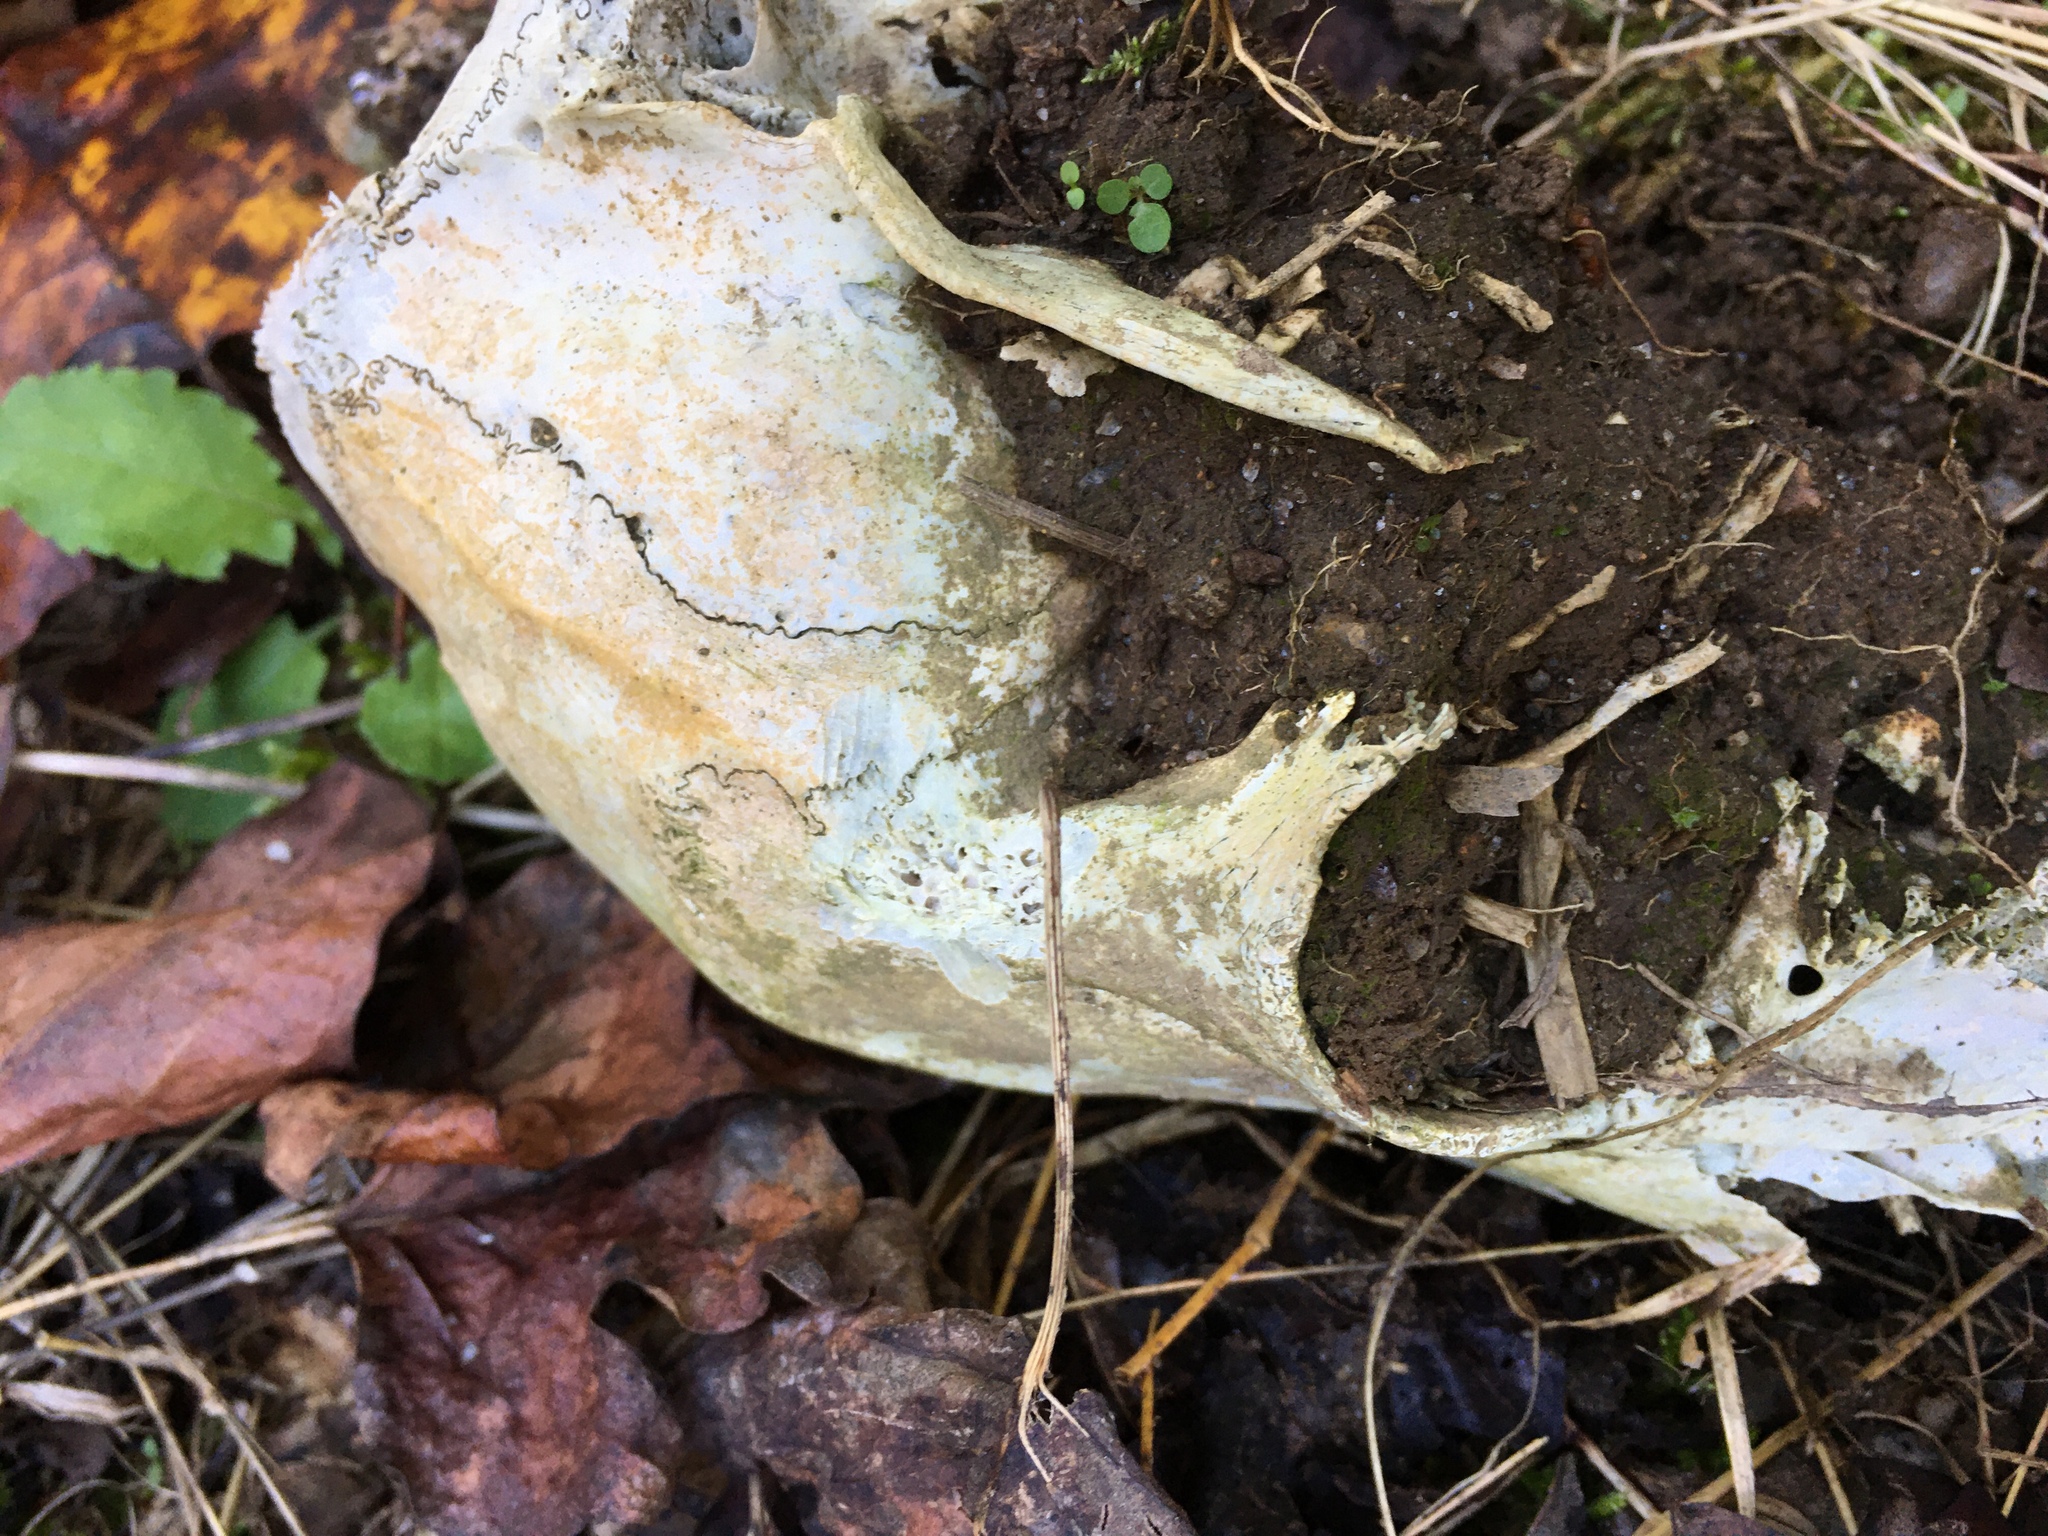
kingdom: Animalia
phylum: Chordata
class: Mammalia
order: Artiodactyla
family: Cervidae
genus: Odocoileus
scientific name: Odocoileus virginianus
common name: White-tailed deer
